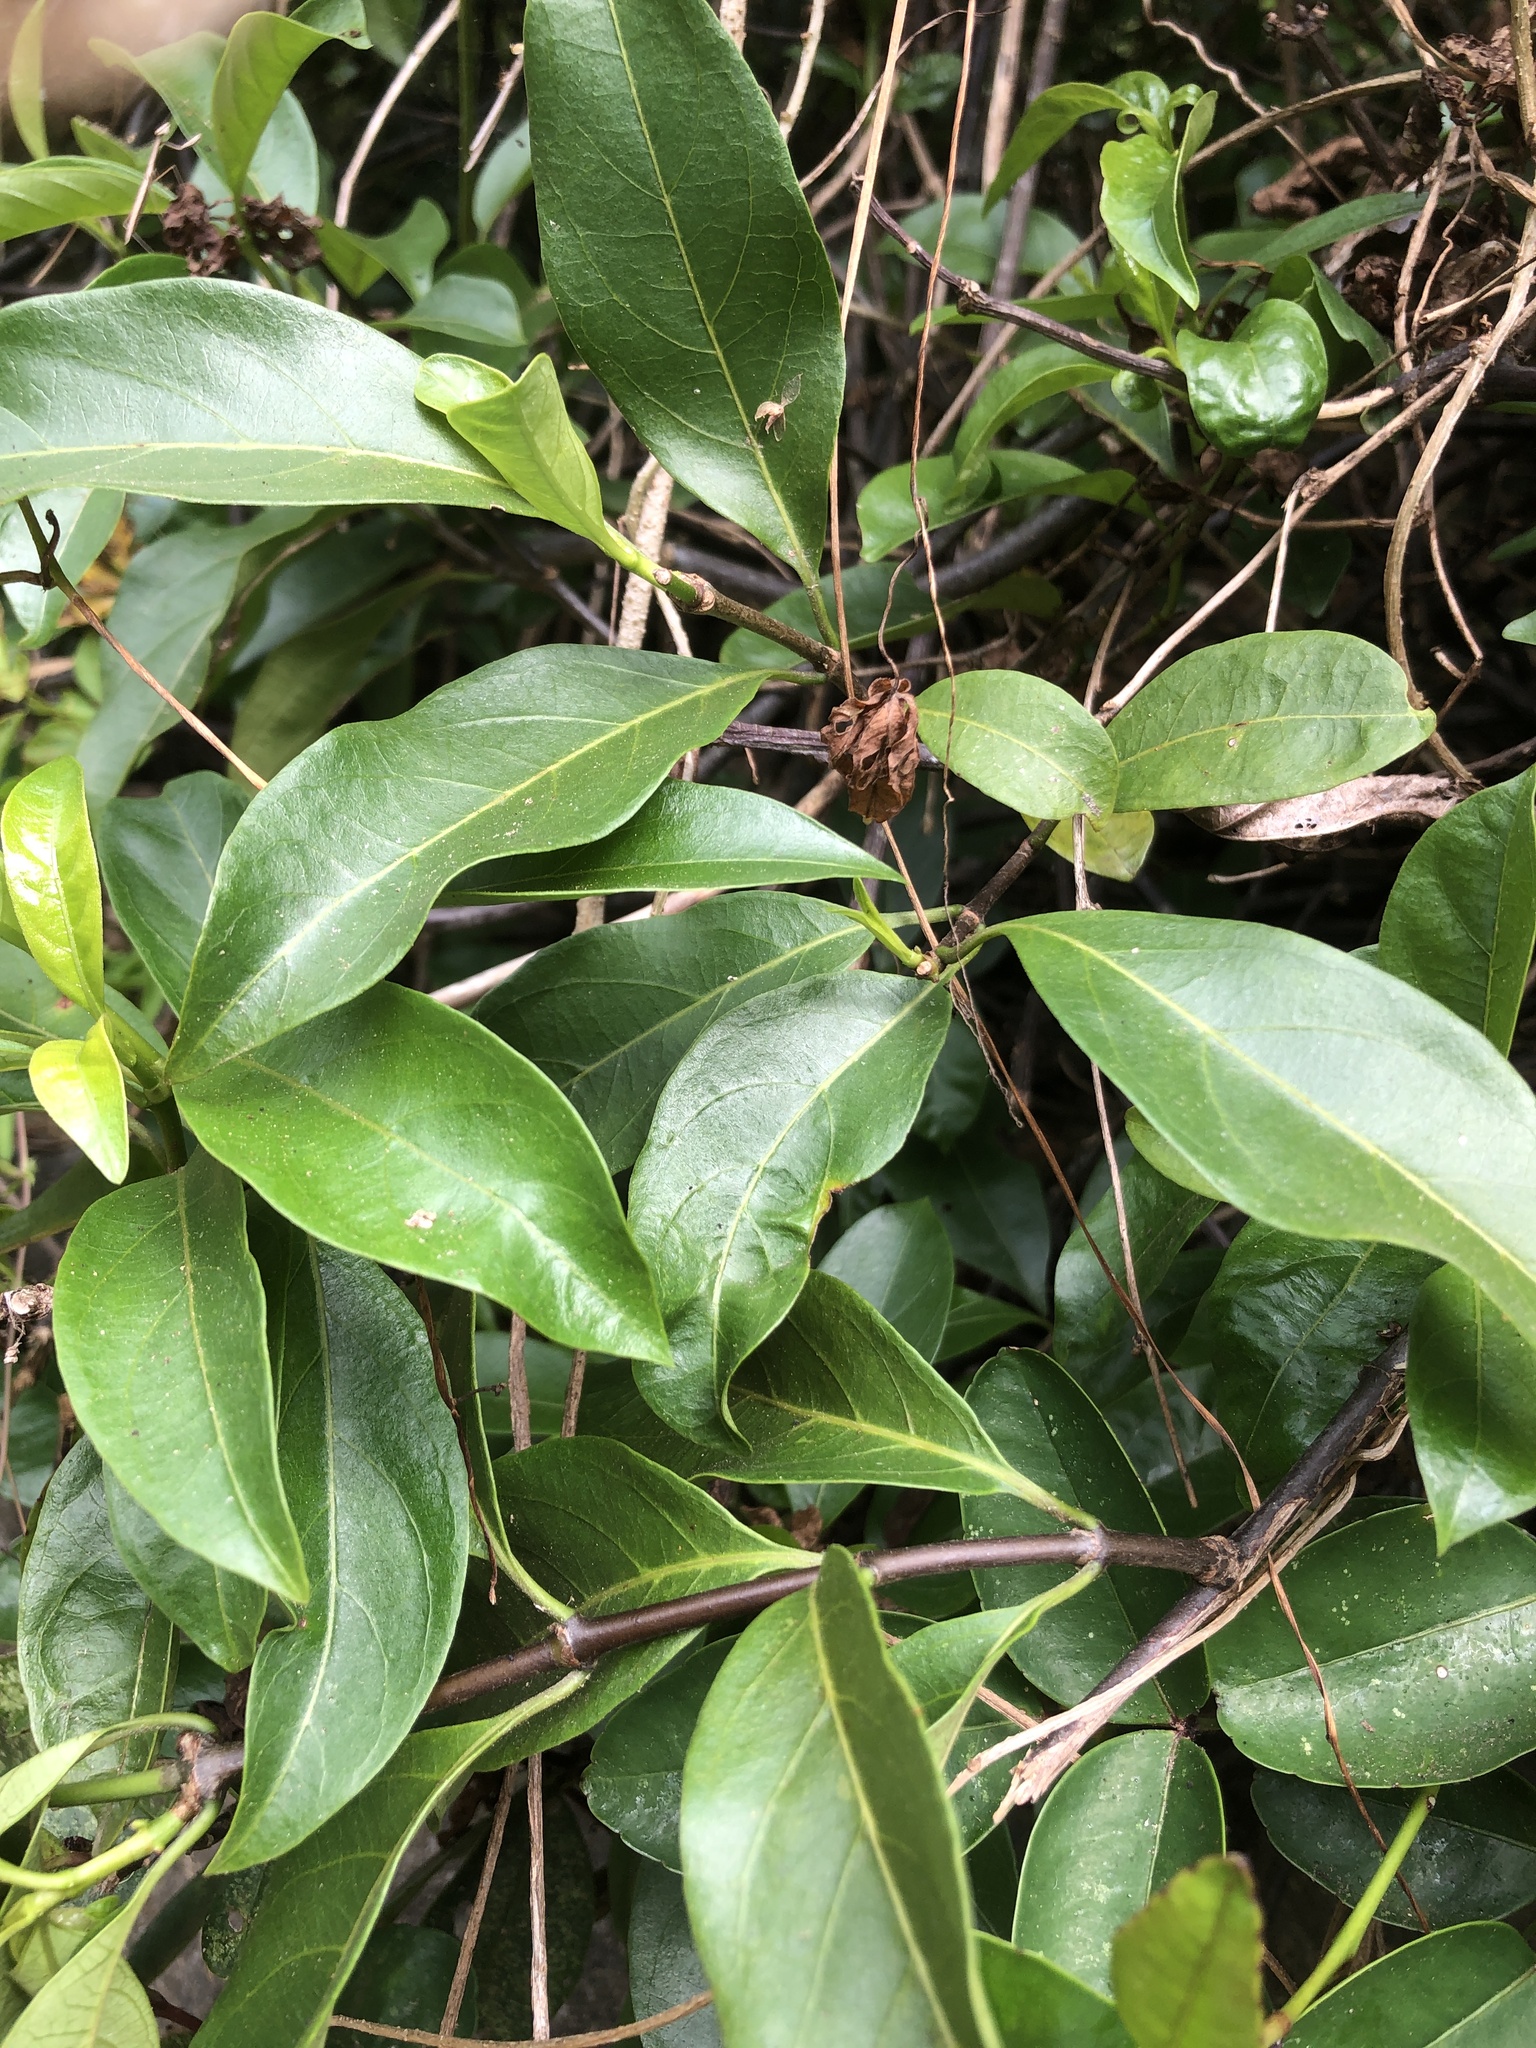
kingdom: Plantae
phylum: Tracheophyta
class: Magnoliopsida
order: Gentianales
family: Rubiaceae
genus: Gynochthodes
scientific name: Gynochthodes umbellata
